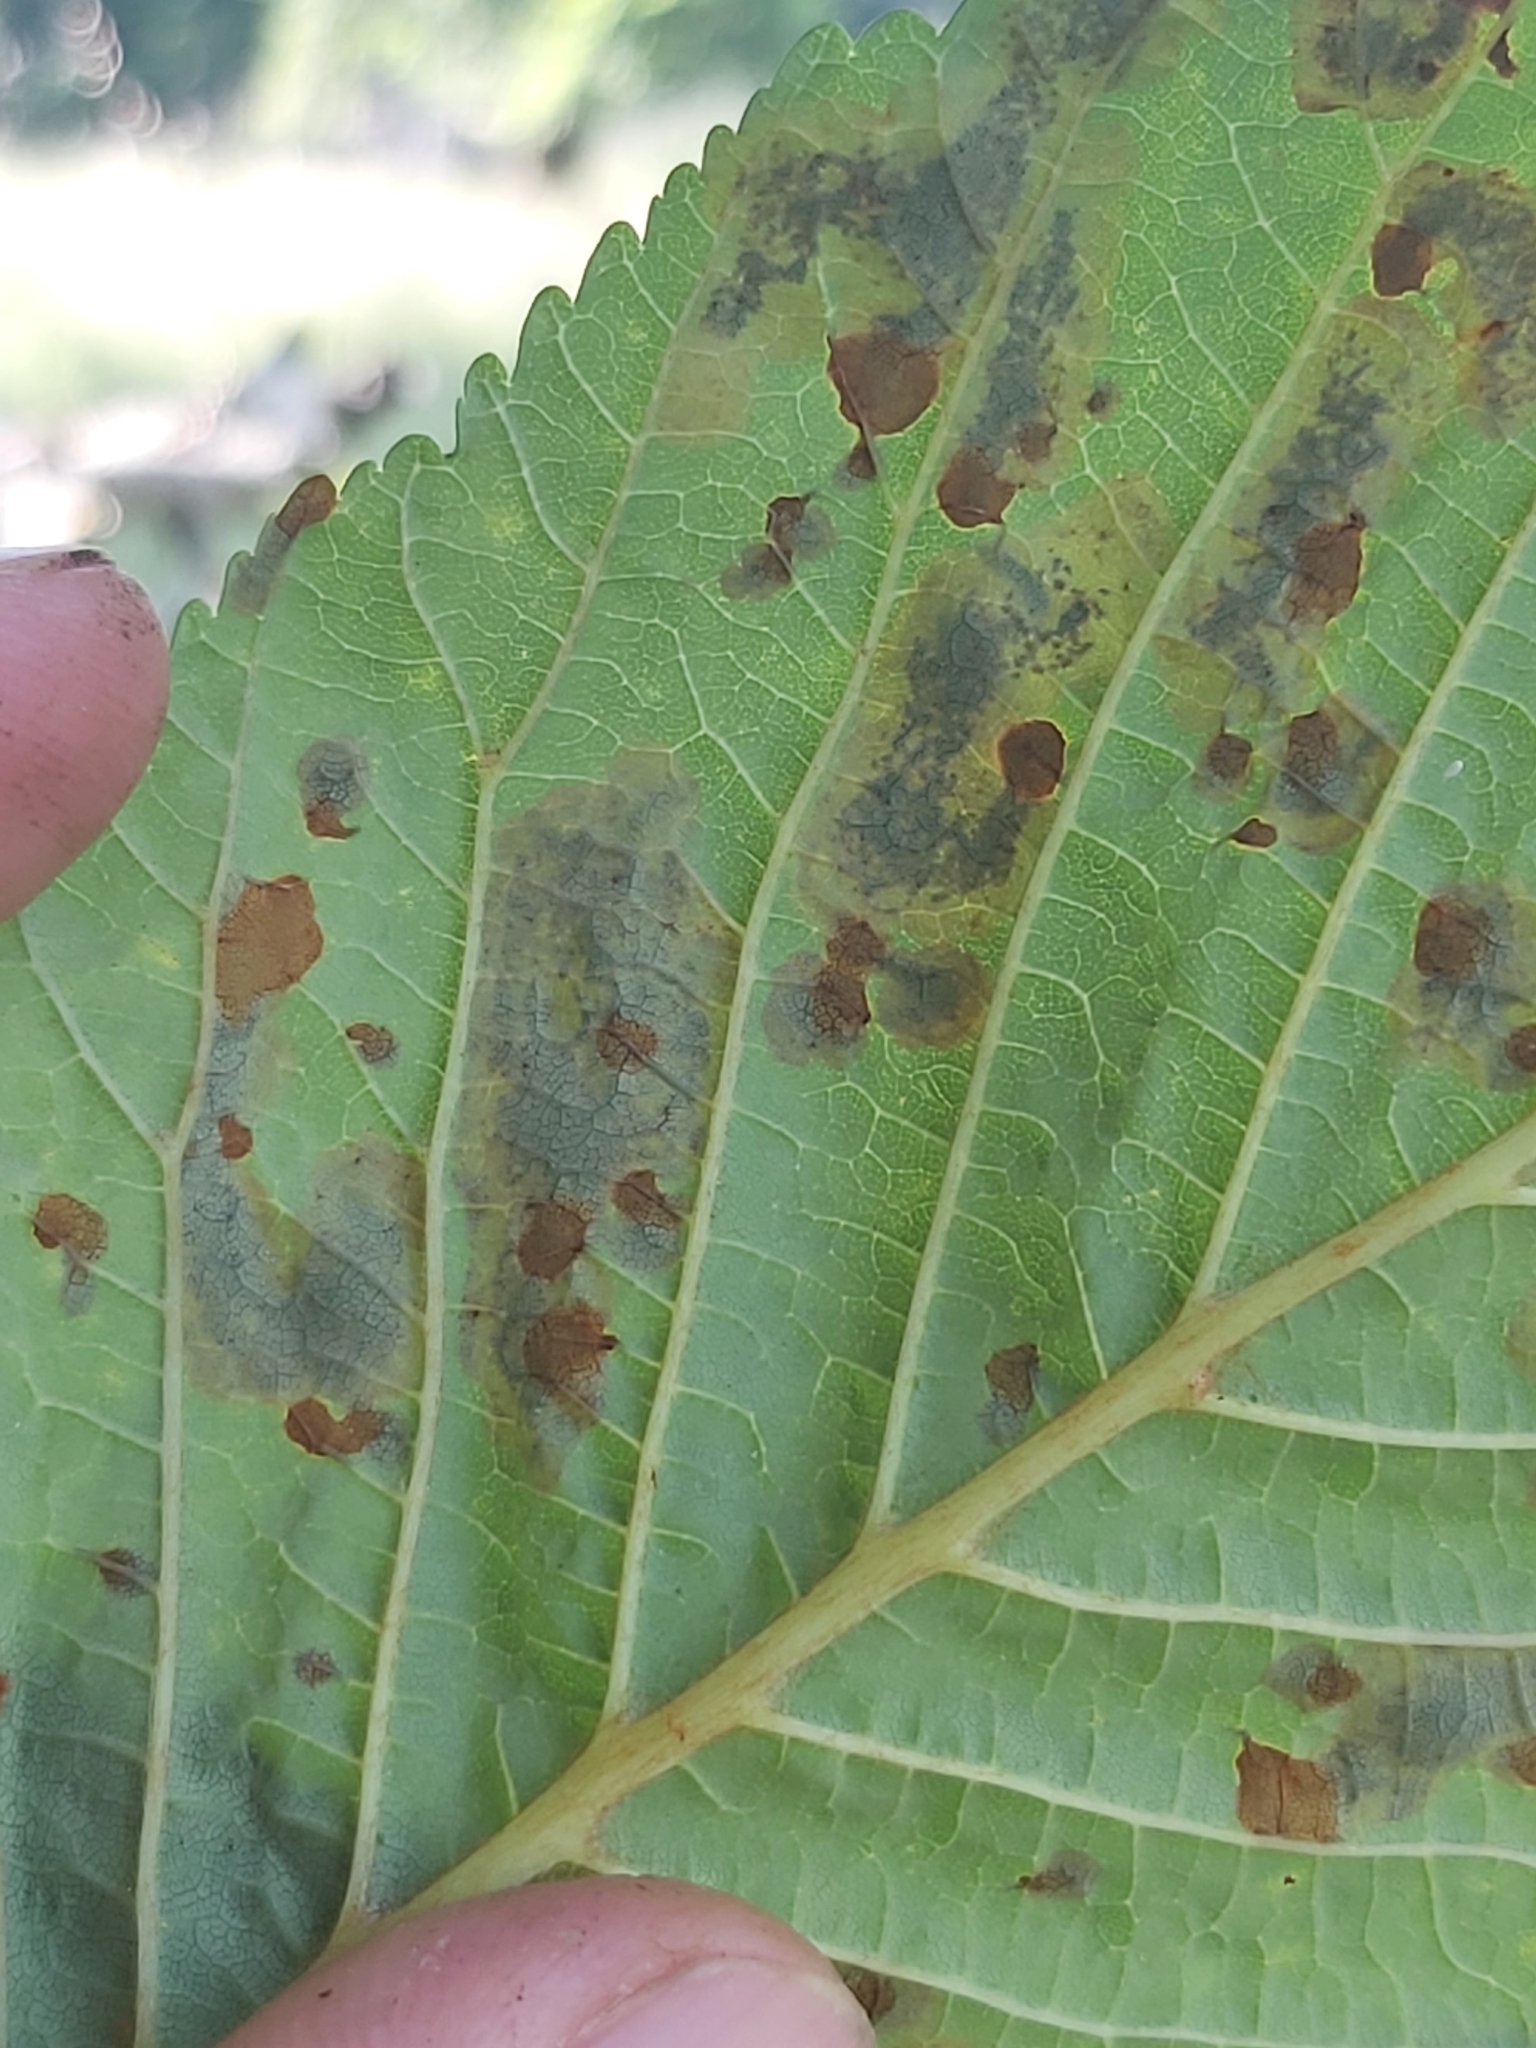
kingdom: Animalia
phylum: Arthropoda
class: Insecta
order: Lepidoptera
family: Gracillariidae
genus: Cameraria
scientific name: Cameraria ohridella
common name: Horse-chestnut leaf-miner
